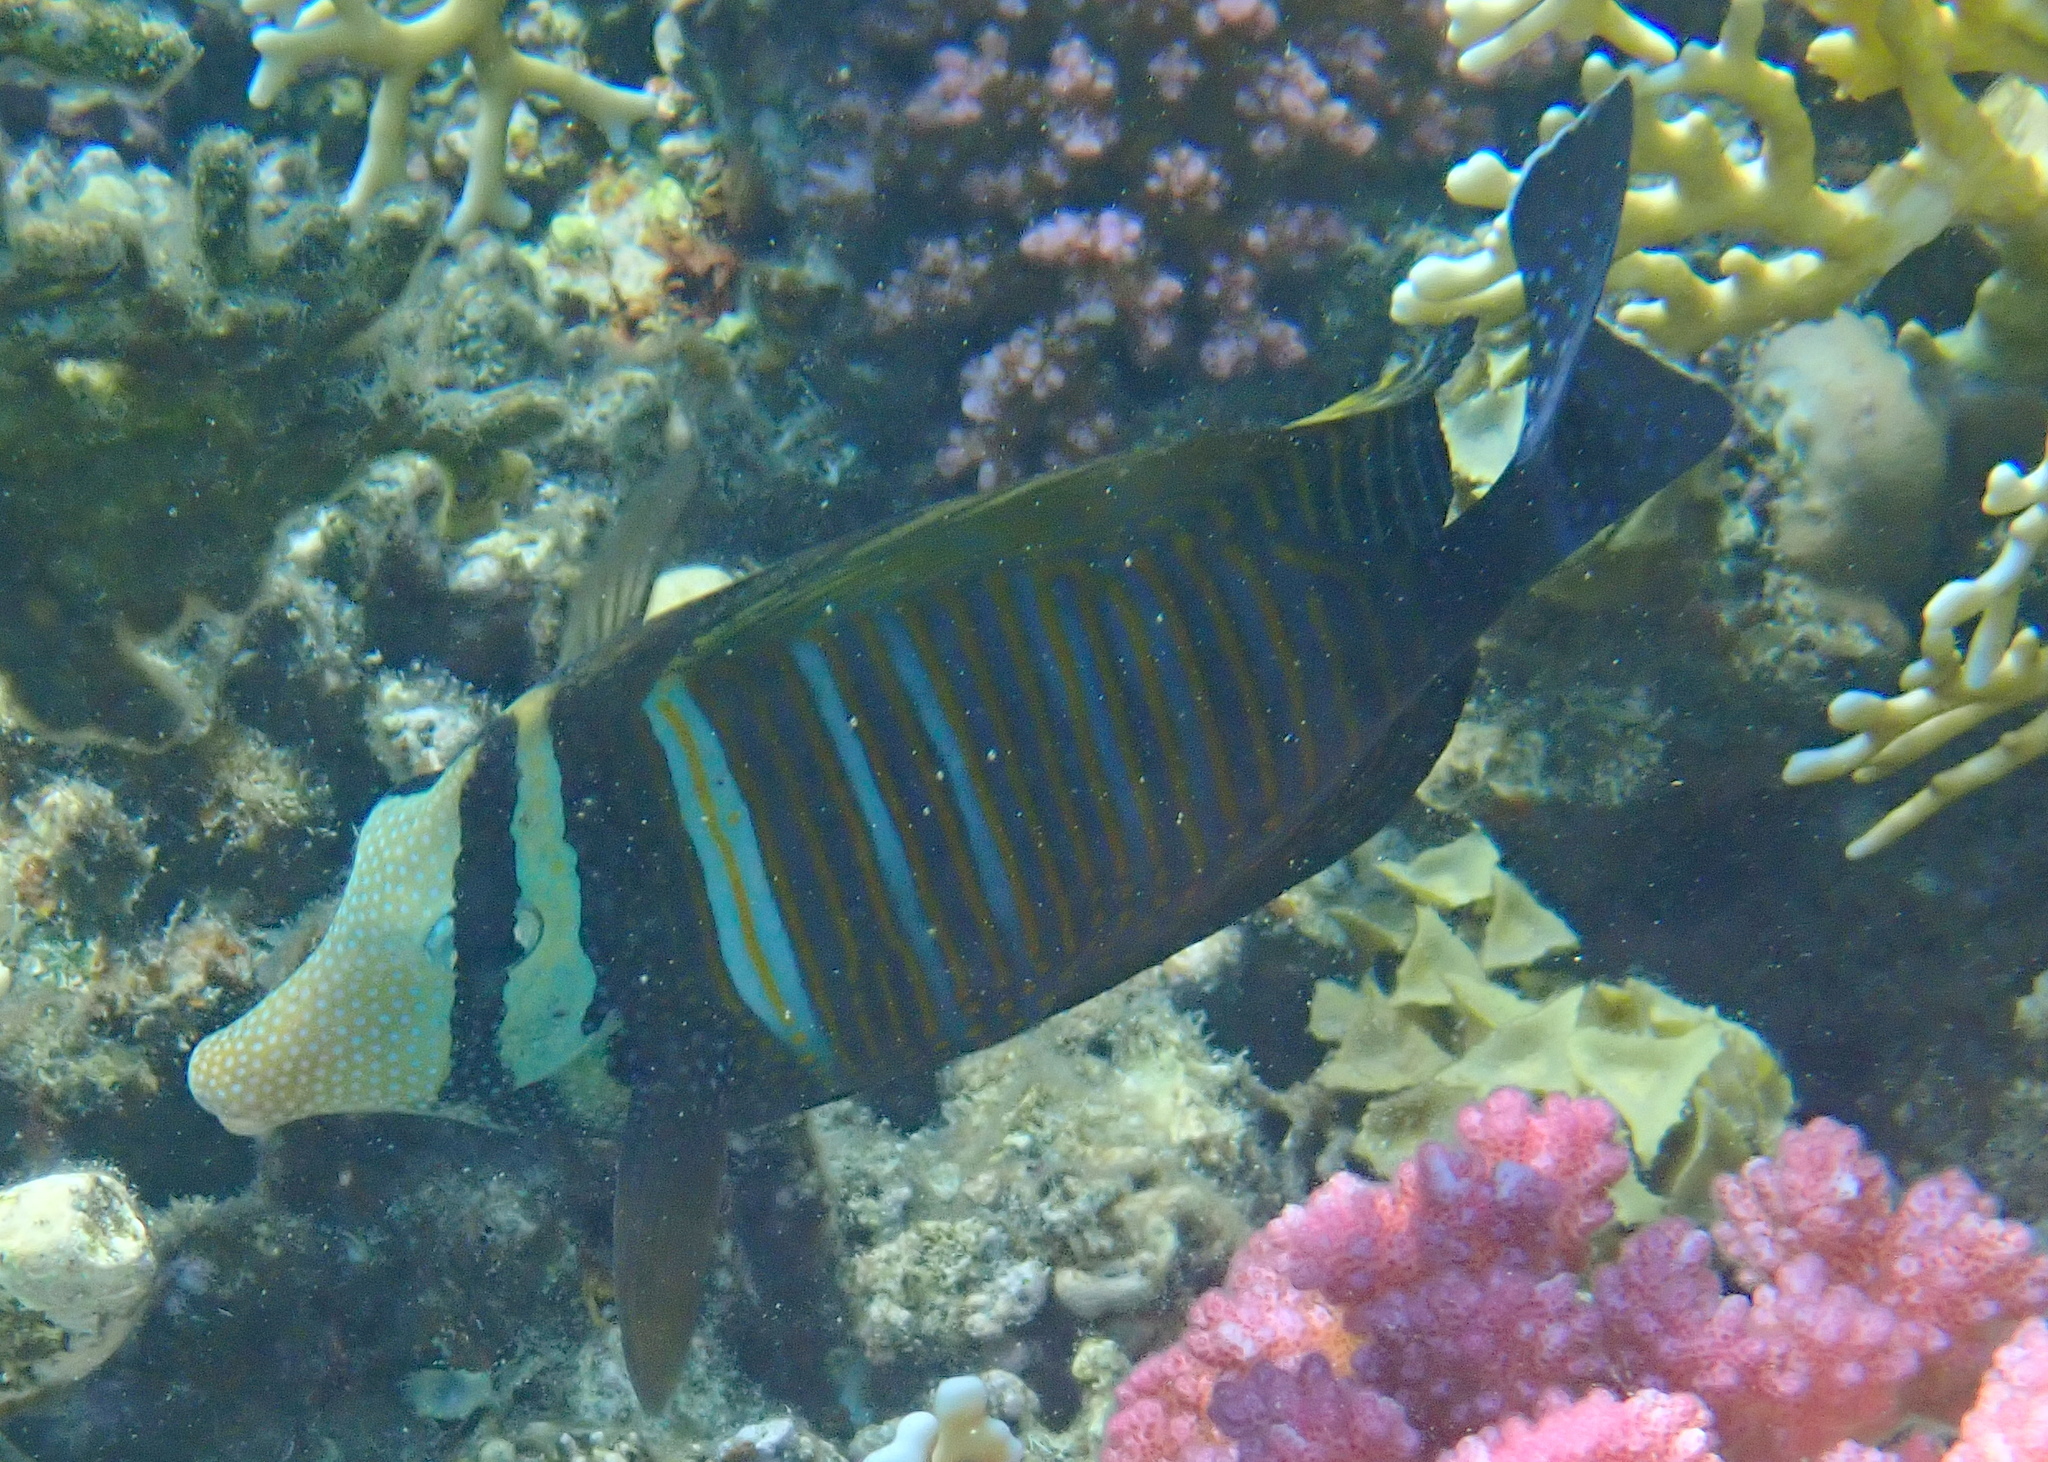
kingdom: Animalia
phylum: Chordata
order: Perciformes
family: Acanthuridae
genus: Zebrasoma
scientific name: Zebrasoma desjardinii
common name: Desjardin's sailfin tang
